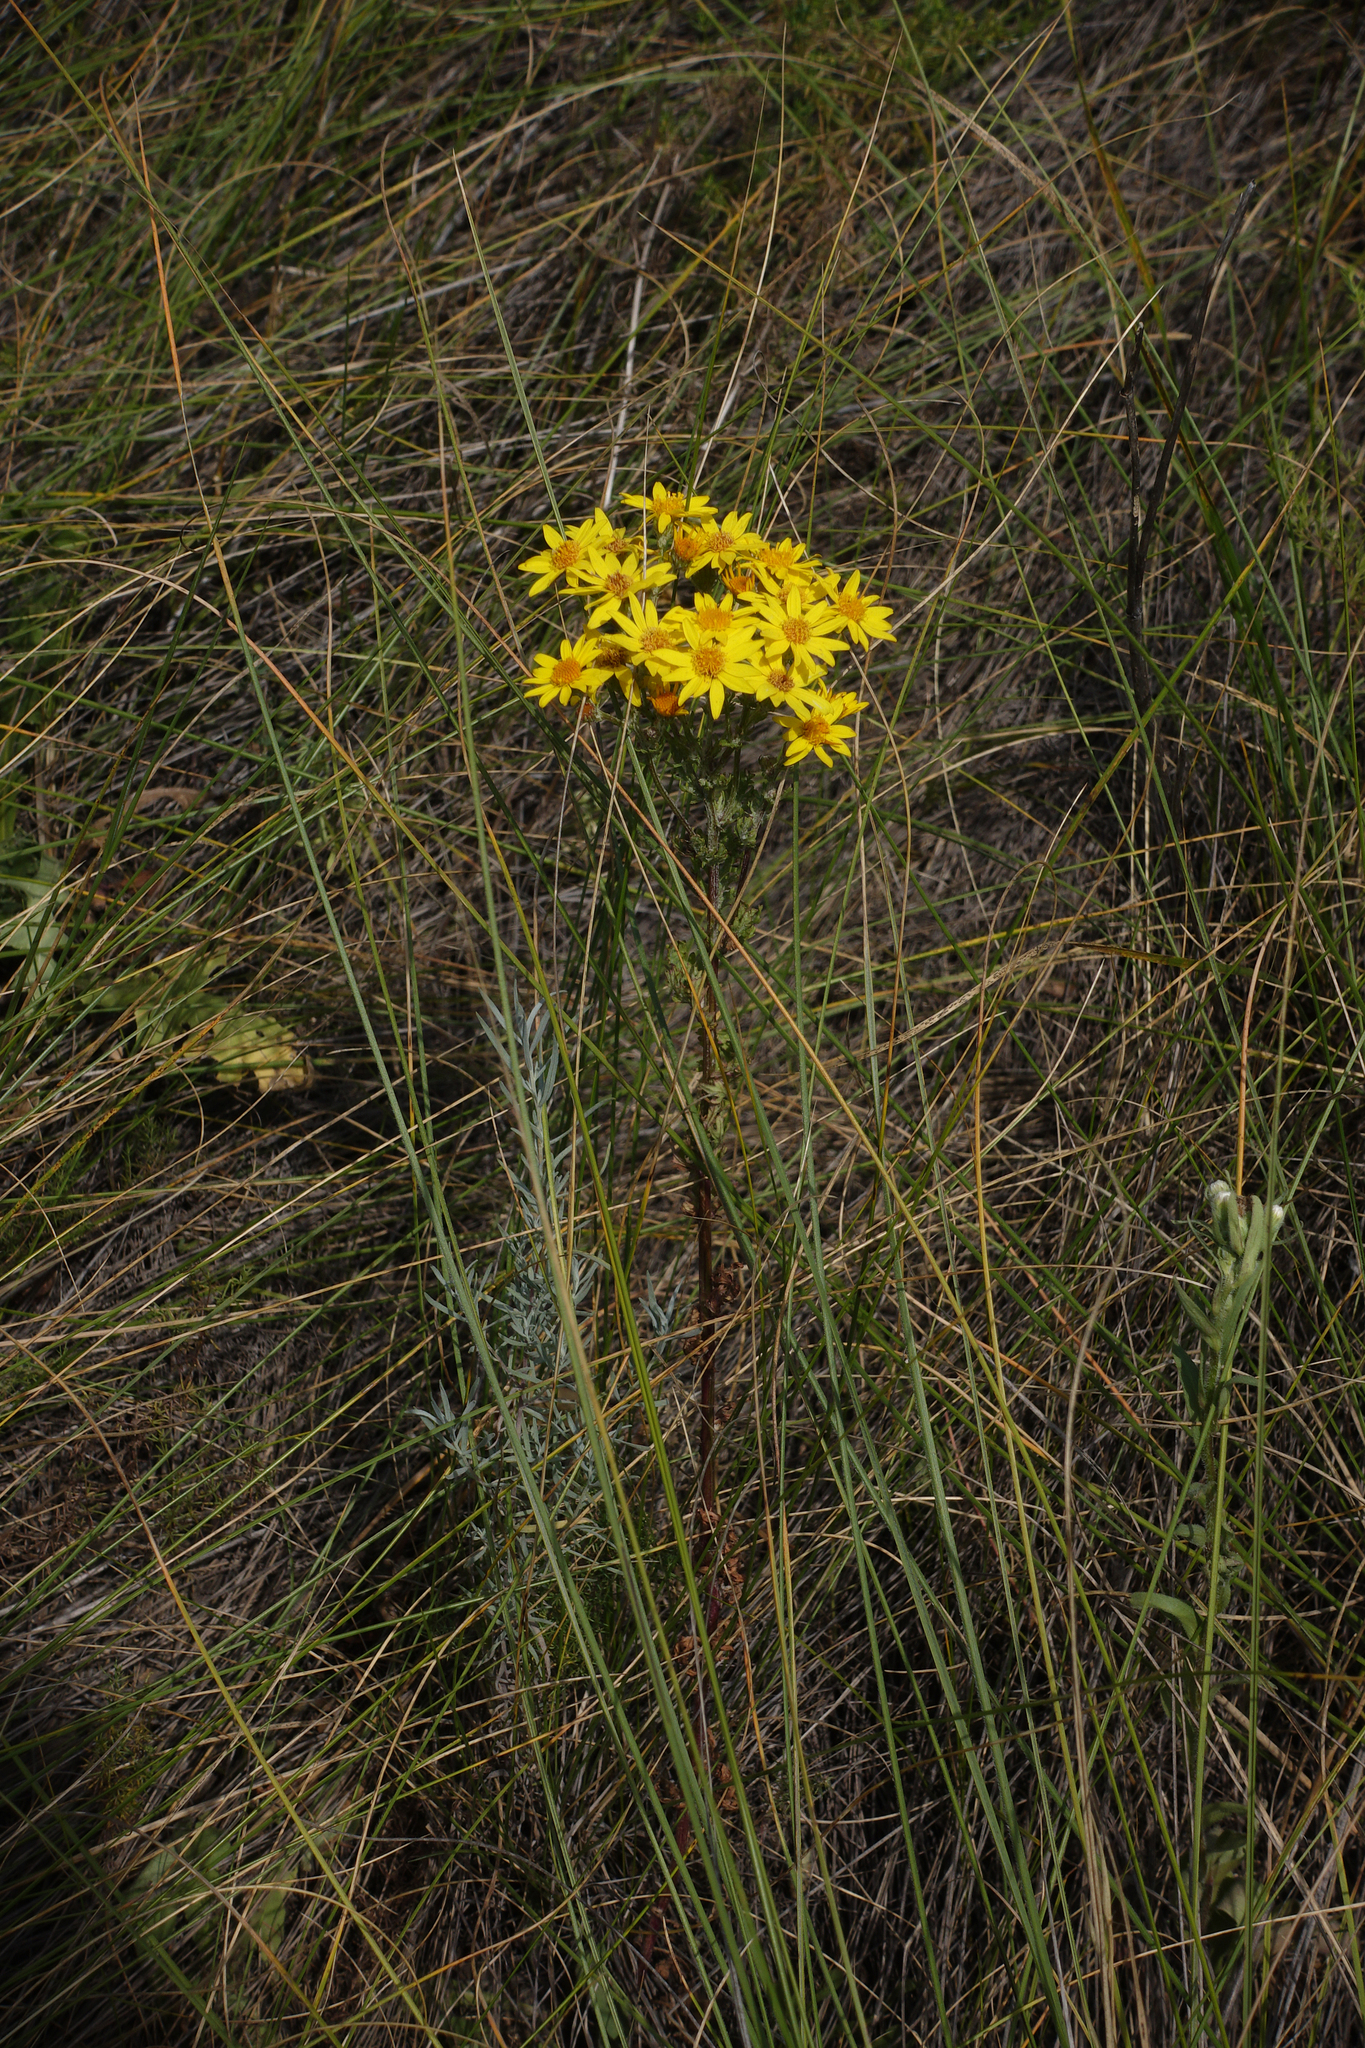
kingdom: Plantae
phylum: Tracheophyta
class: Magnoliopsida
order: Asterales
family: Asteraceae
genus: Jacobaea
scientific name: Jacobaea vulgaris
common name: Stinking willie
